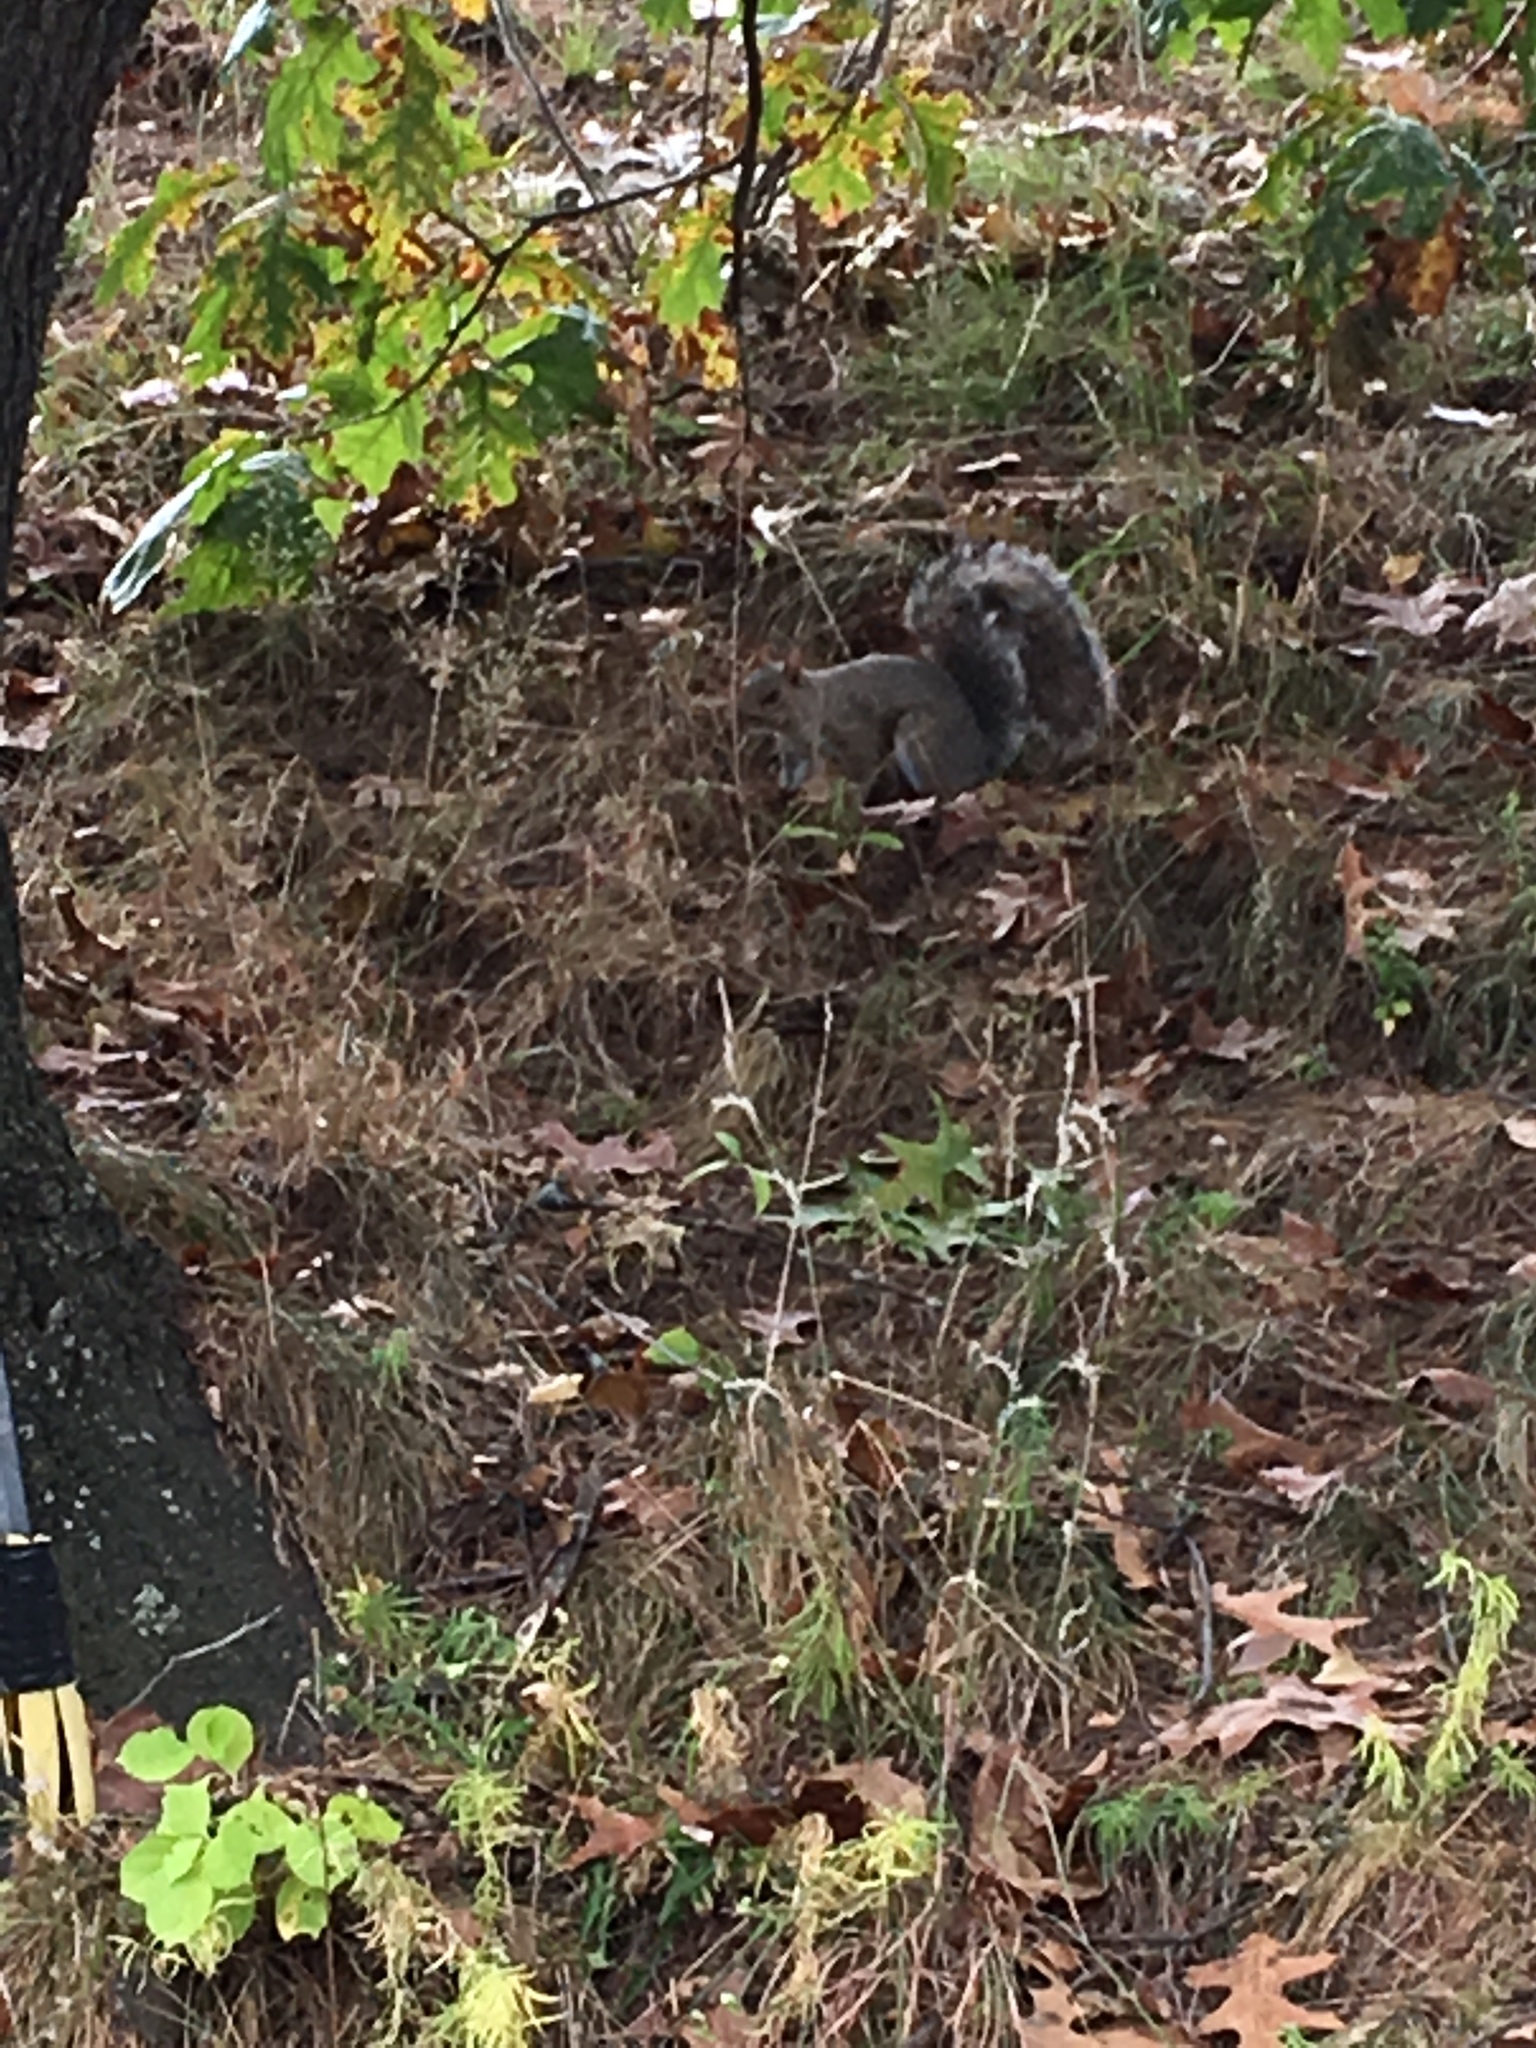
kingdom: Animalia
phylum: Chordata
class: Mammalia
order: Rodentia
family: Sciuridae
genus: Sciurus
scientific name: Sciurus carolinensis
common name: Eastern gray squirrel
